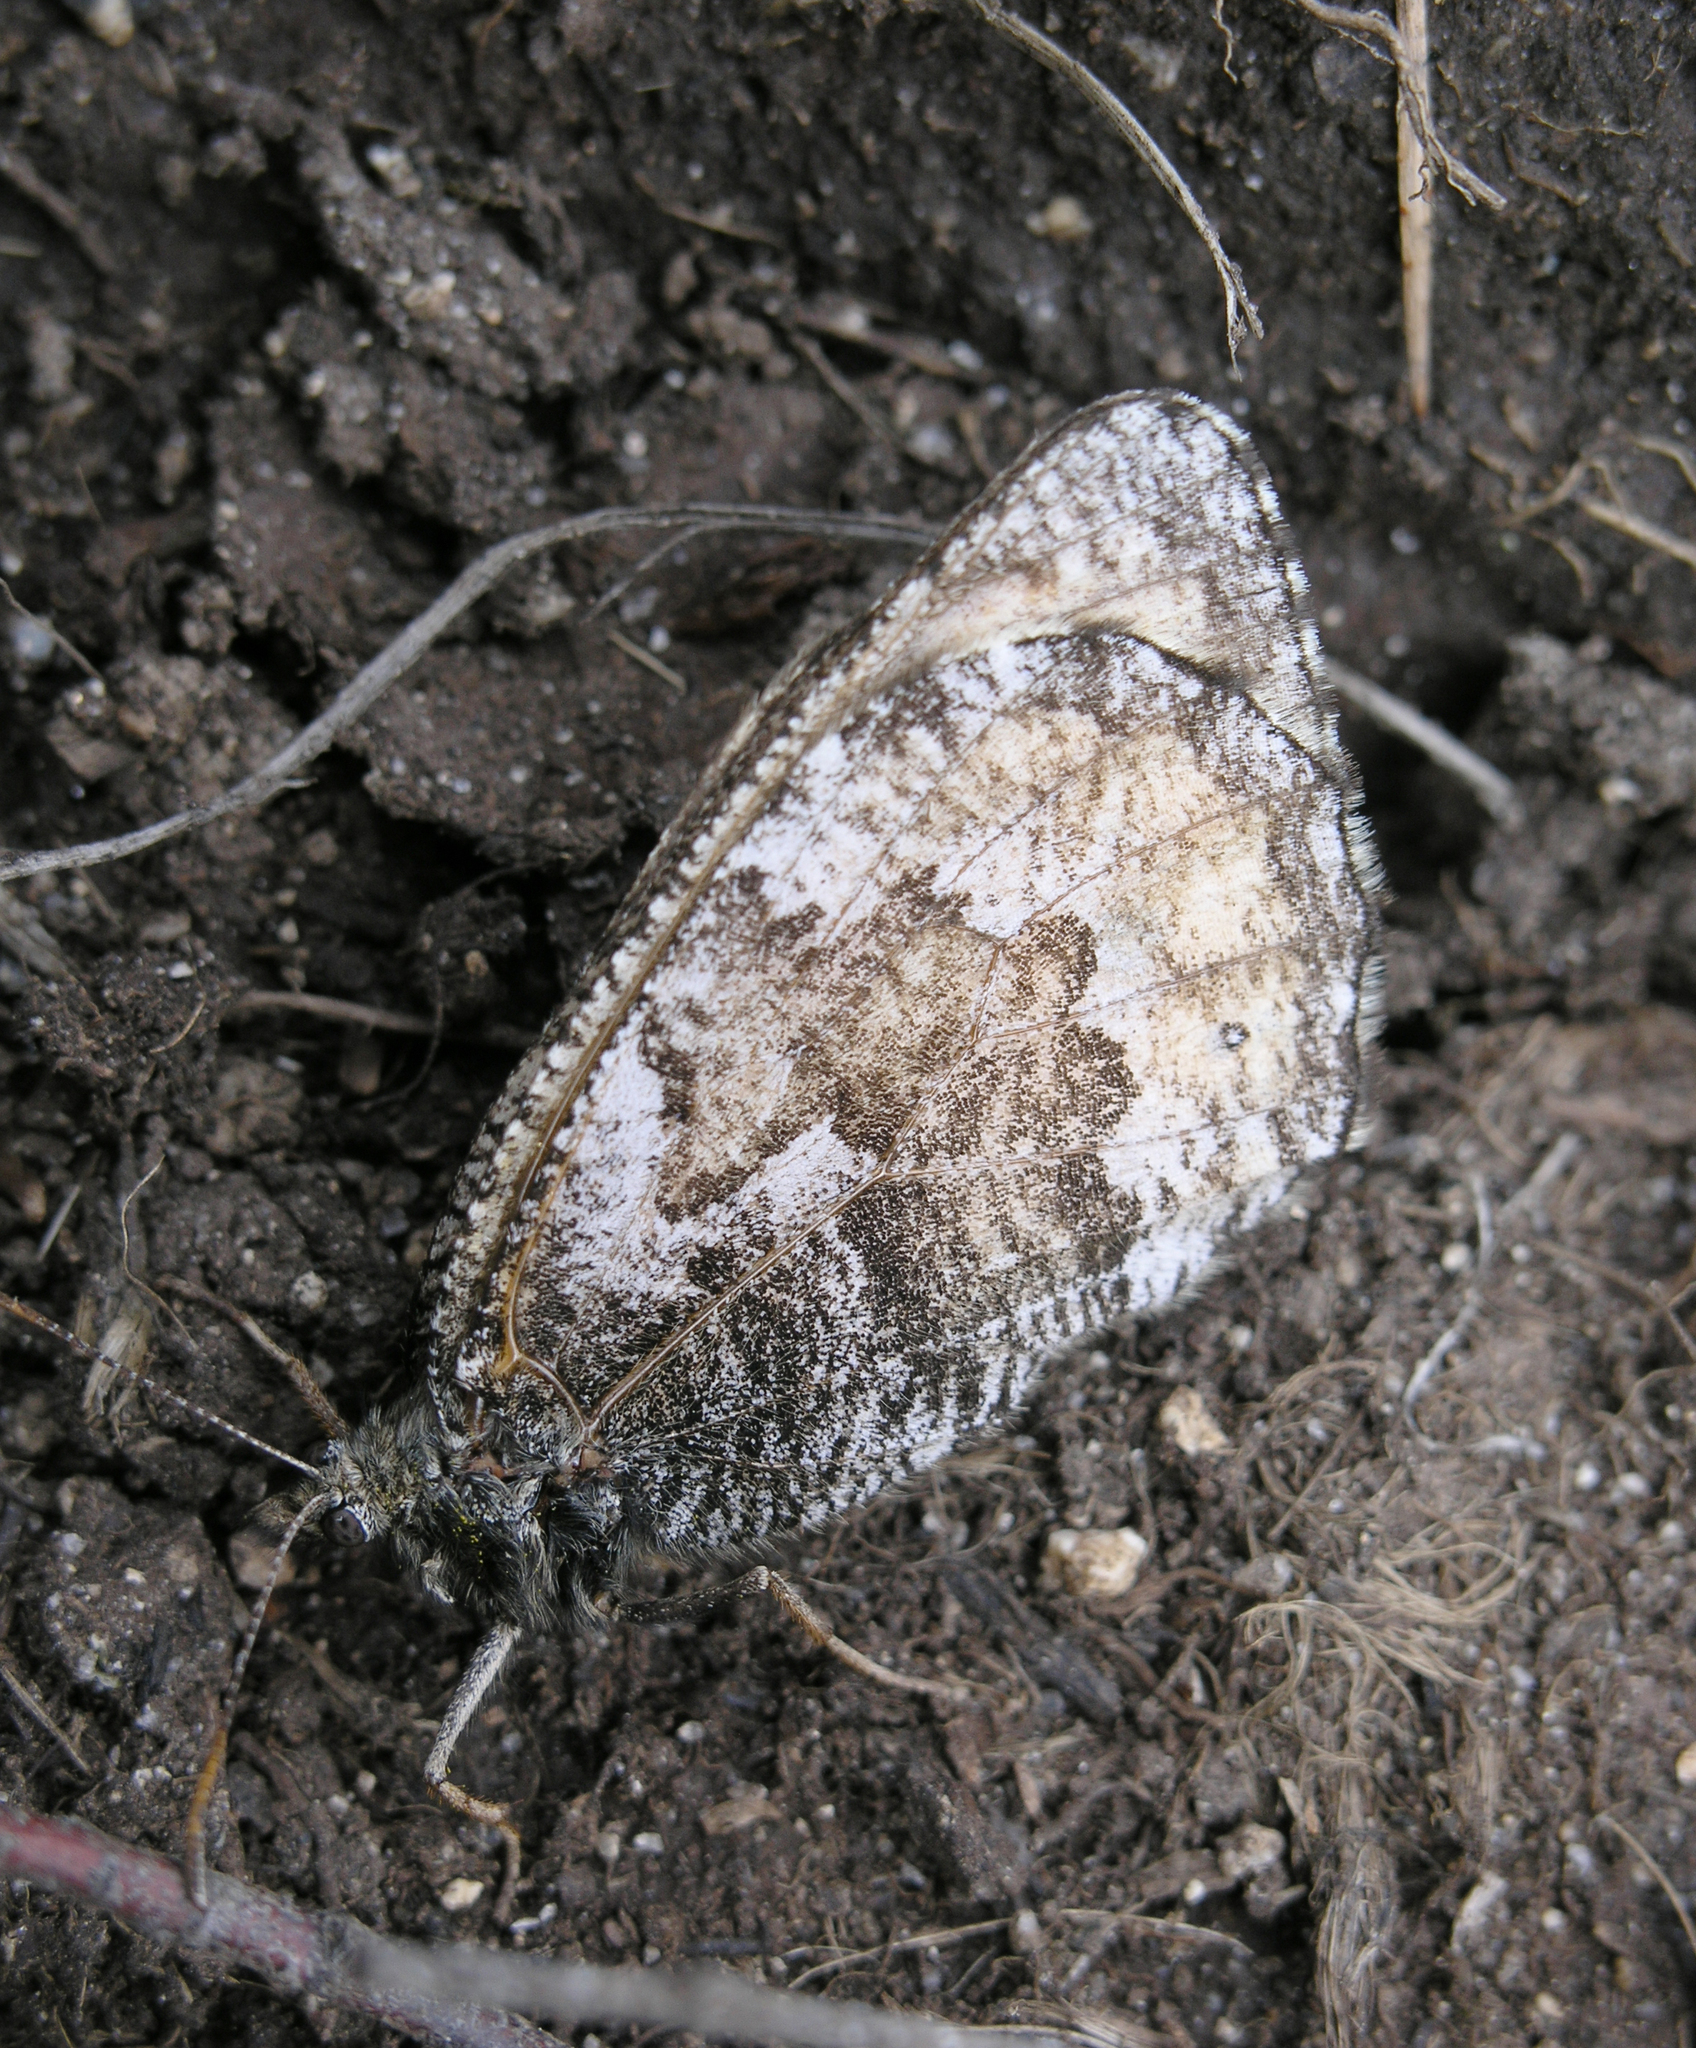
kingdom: Animalia
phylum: Arthropoda
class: Insecta
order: Lepidoptera
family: Nymphalidae
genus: Oeneis
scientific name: Oeneis norna
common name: Norse grayling
